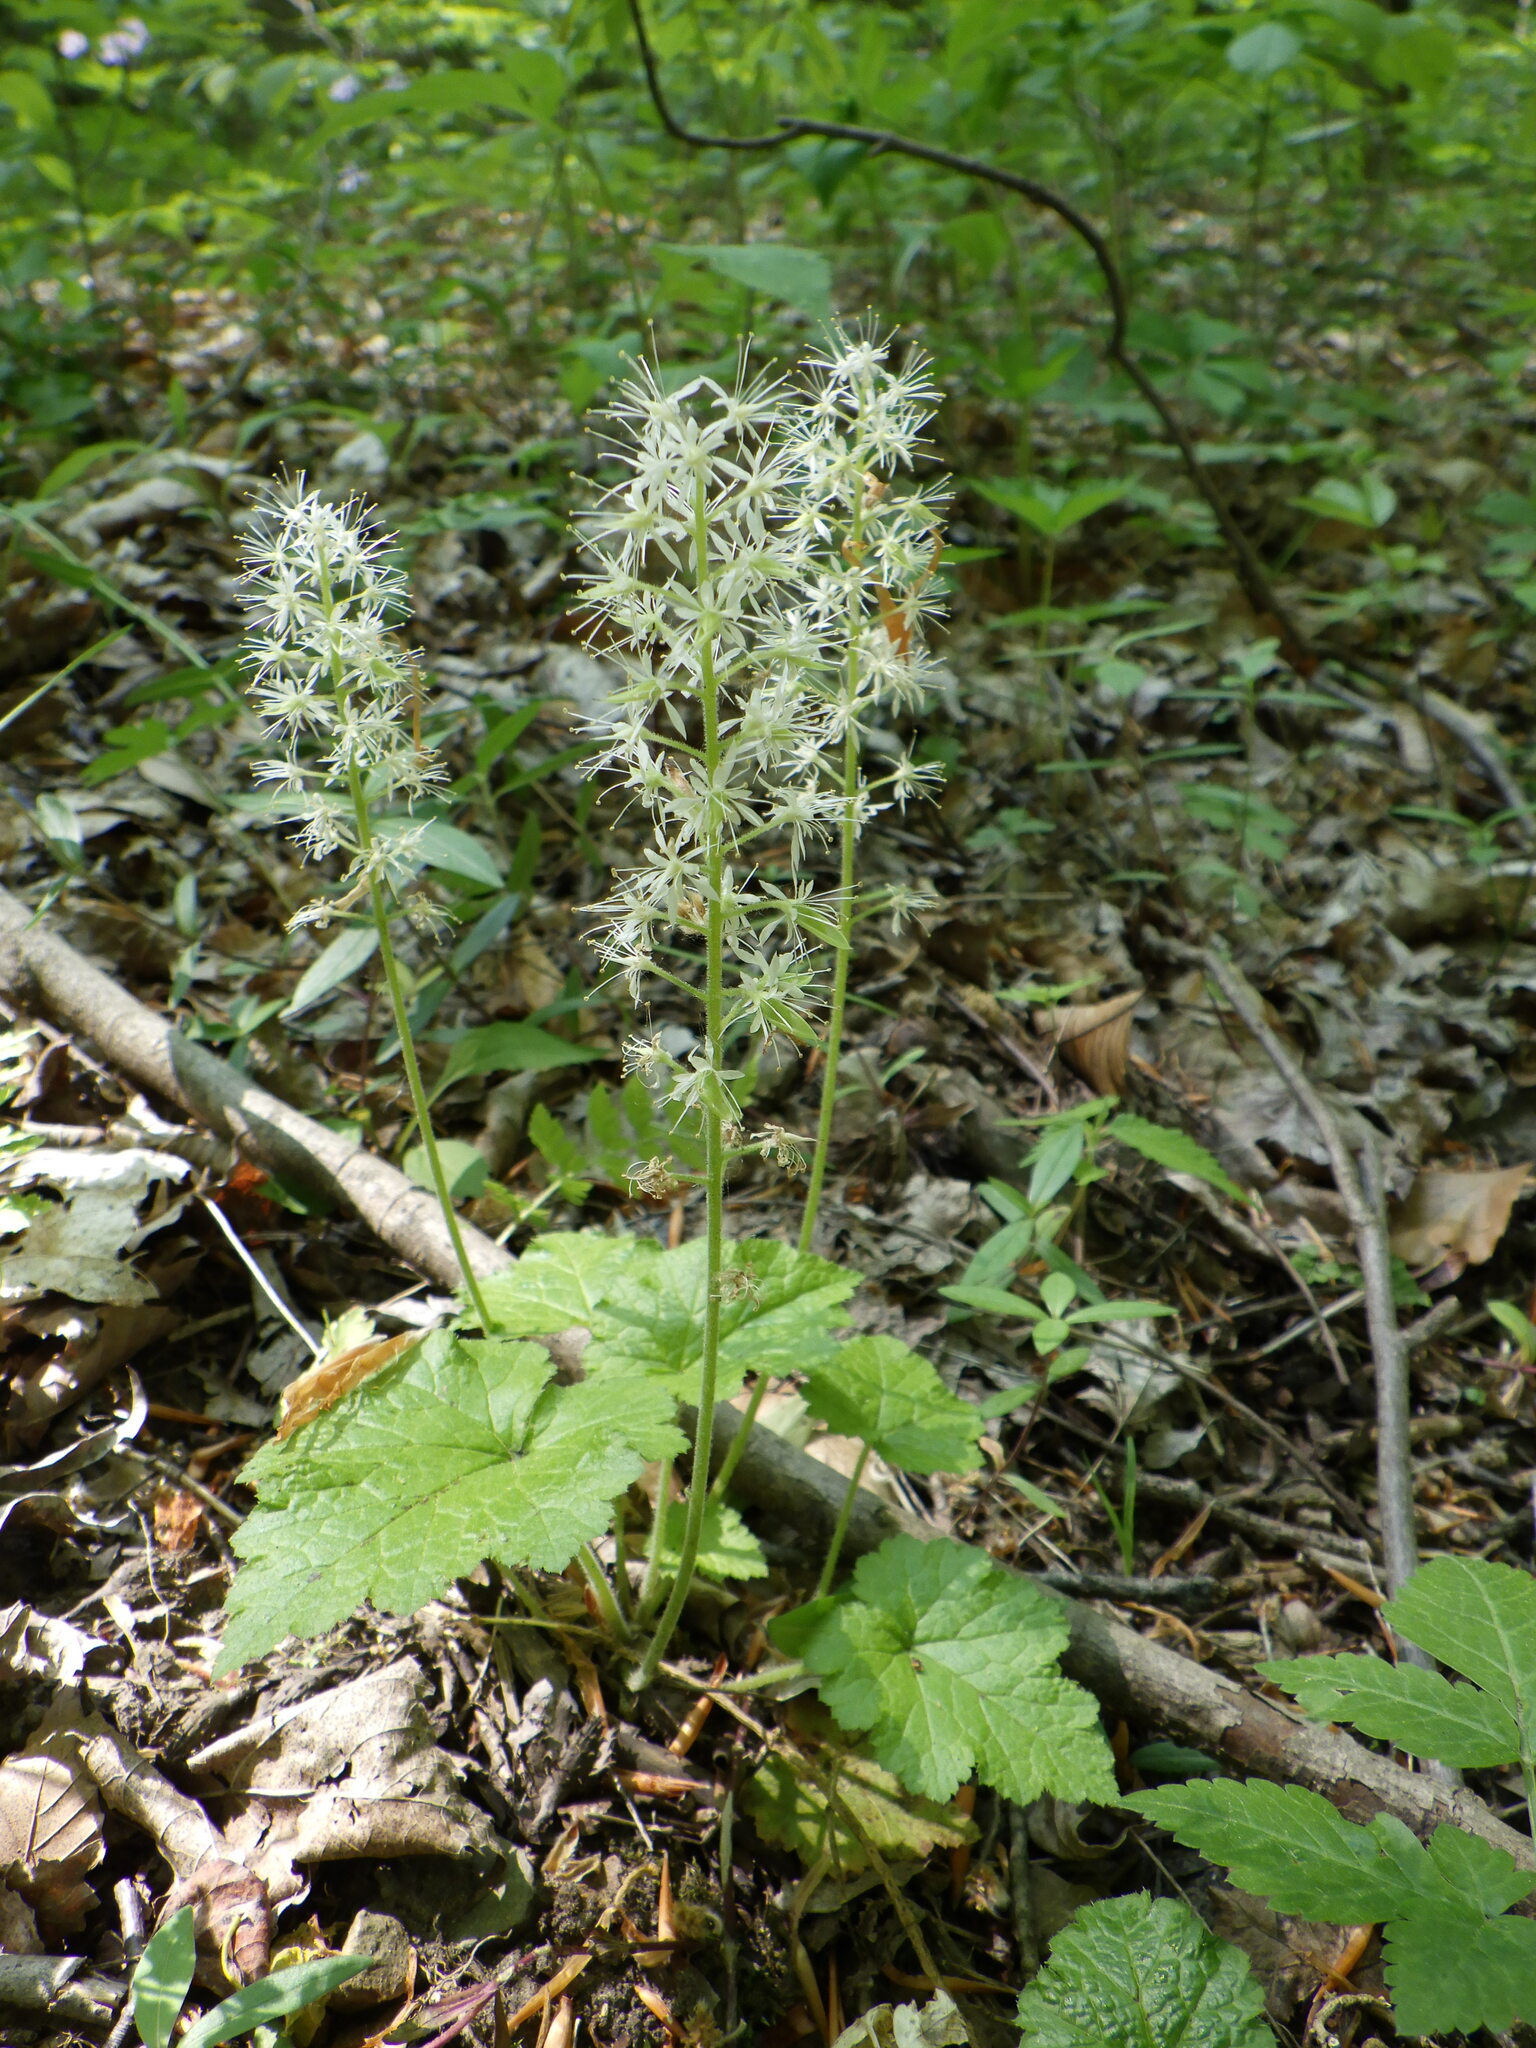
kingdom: Plantae
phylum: Tracheophyta
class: Magnoliopsida
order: Saxifragales
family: Saxifragaceae
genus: Tiarella
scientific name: Tiarella stolonifera
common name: Stoloniferous foamflower
